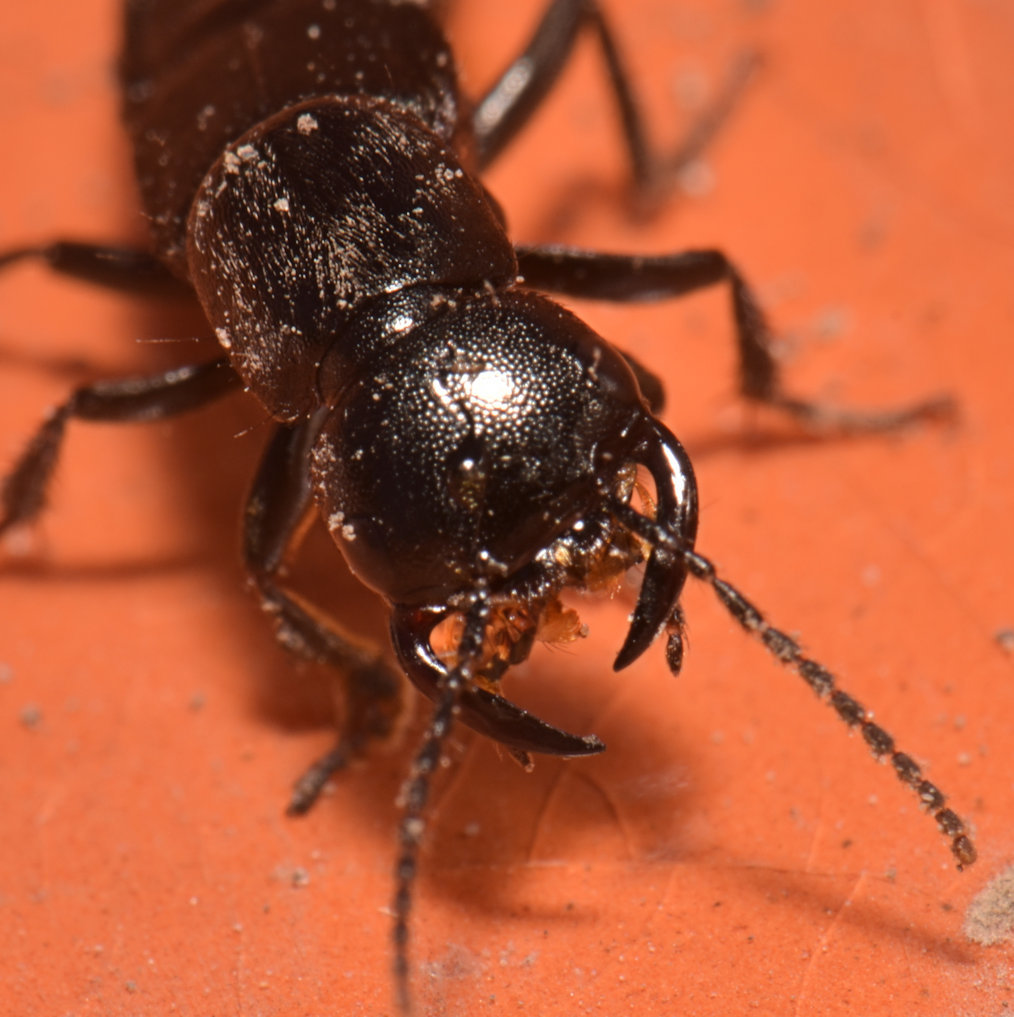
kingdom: Animalia
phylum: Arthropoda
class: Insecta
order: Coleoptera
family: Staphylinidae
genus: Tasgius
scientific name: Tasgius melanarius
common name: Rove beetle
